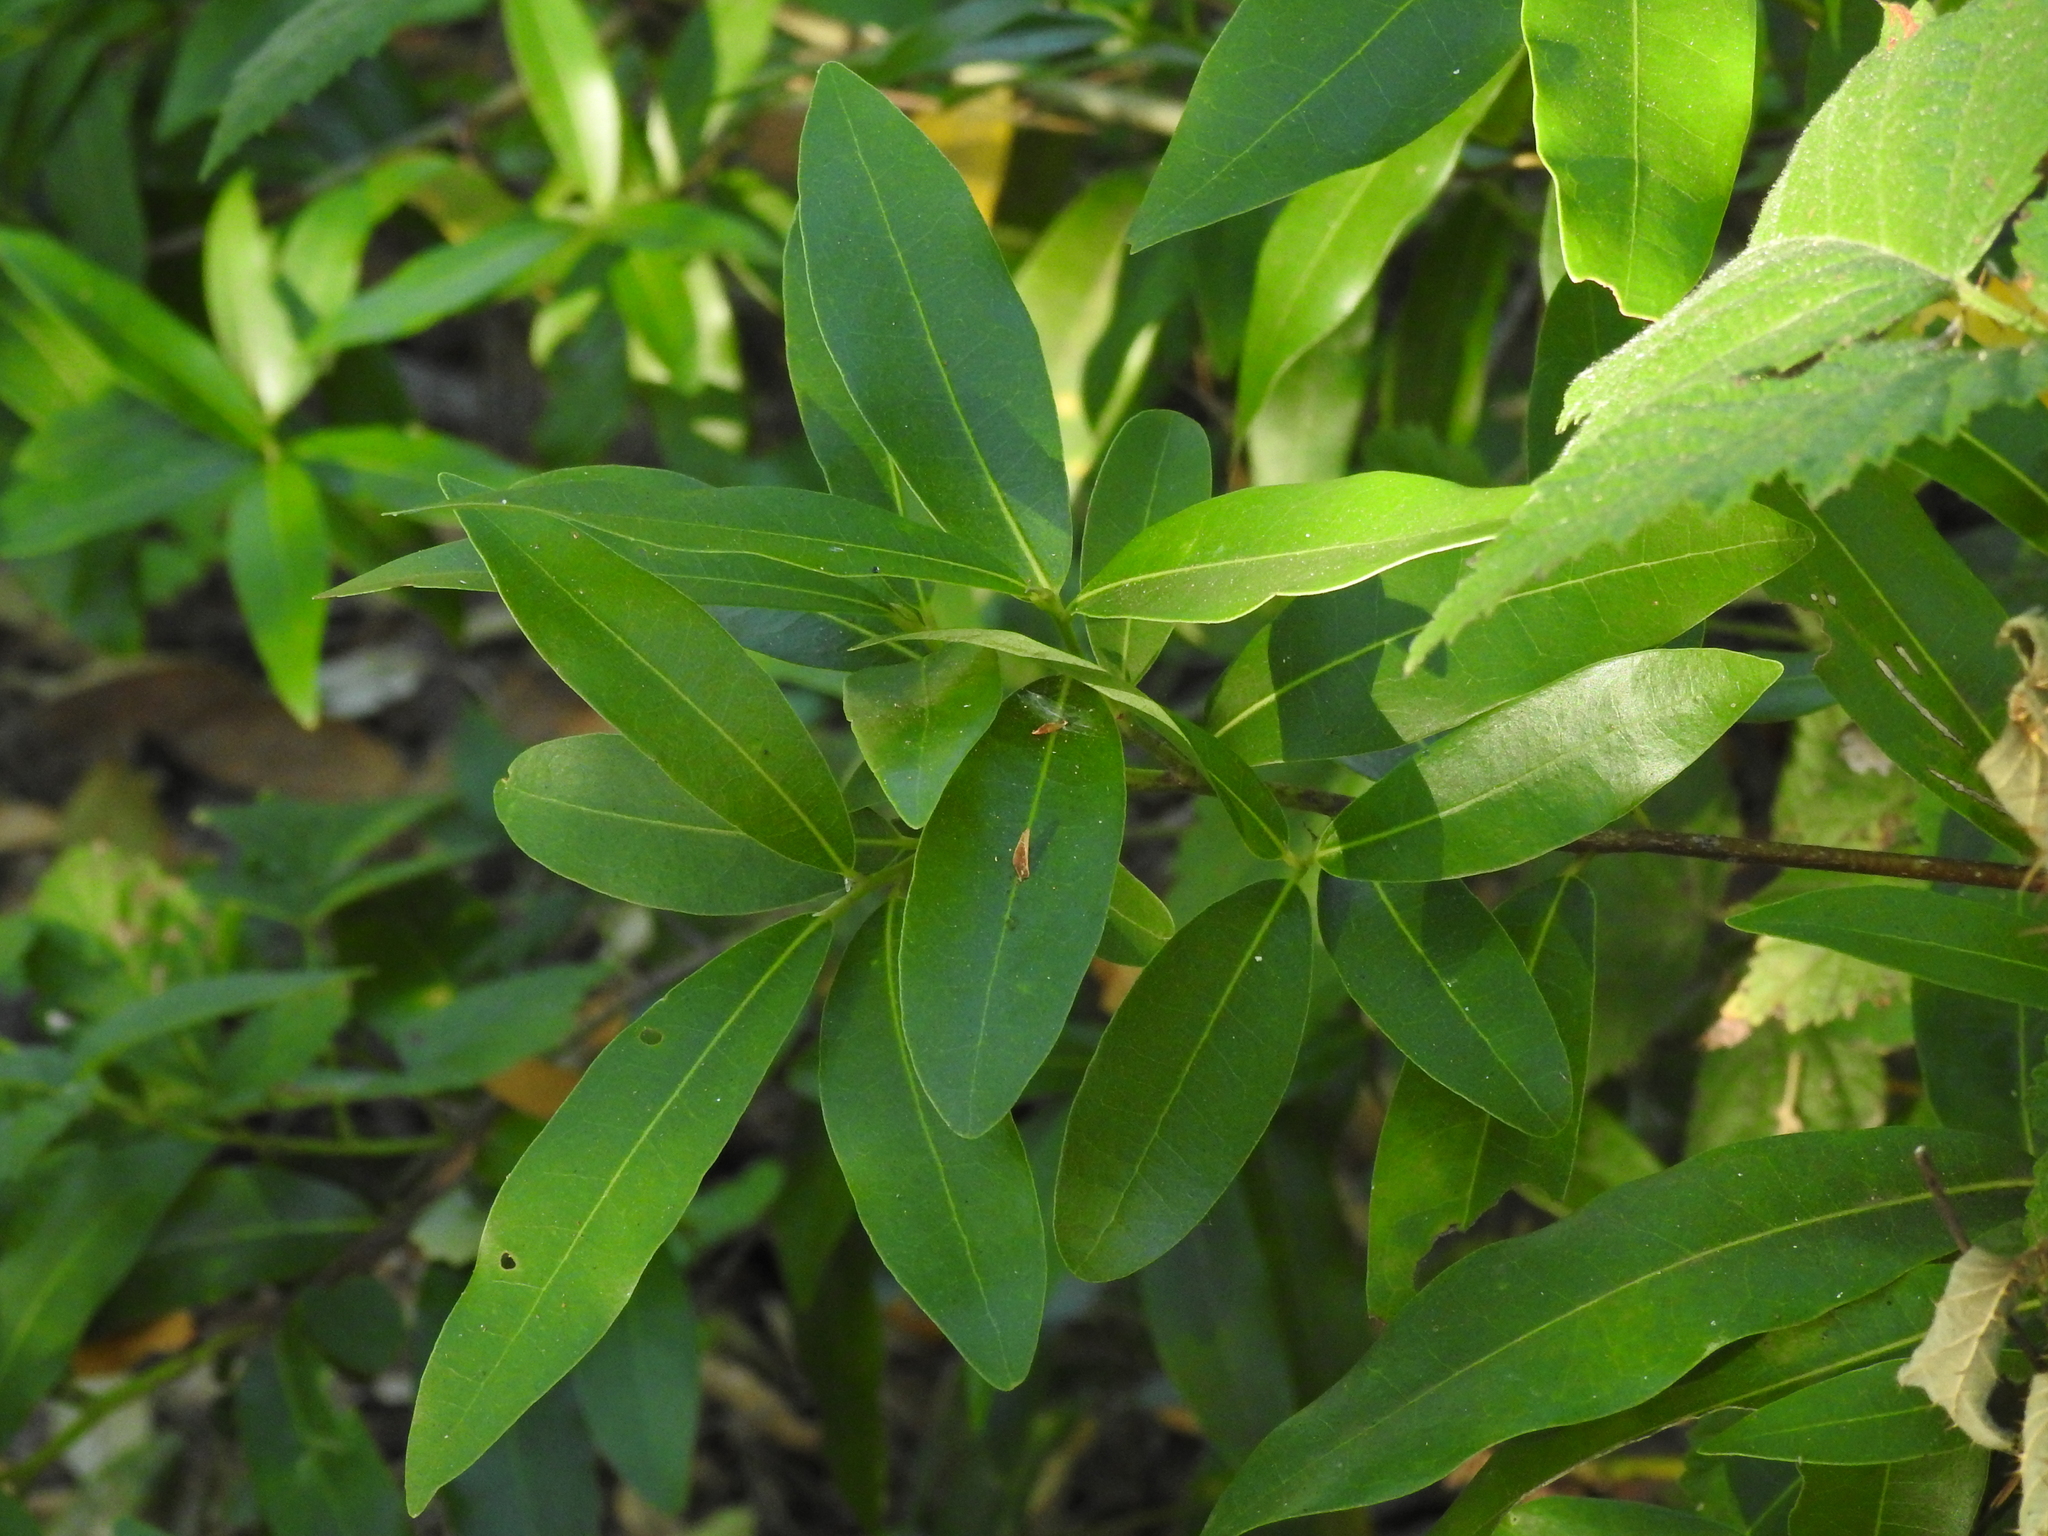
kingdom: Plantae
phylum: Tracheophyta
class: Magnoliopsida
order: Laurales
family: Lauraceae
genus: Umbellularia
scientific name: Umbellularia californica
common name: California bay
